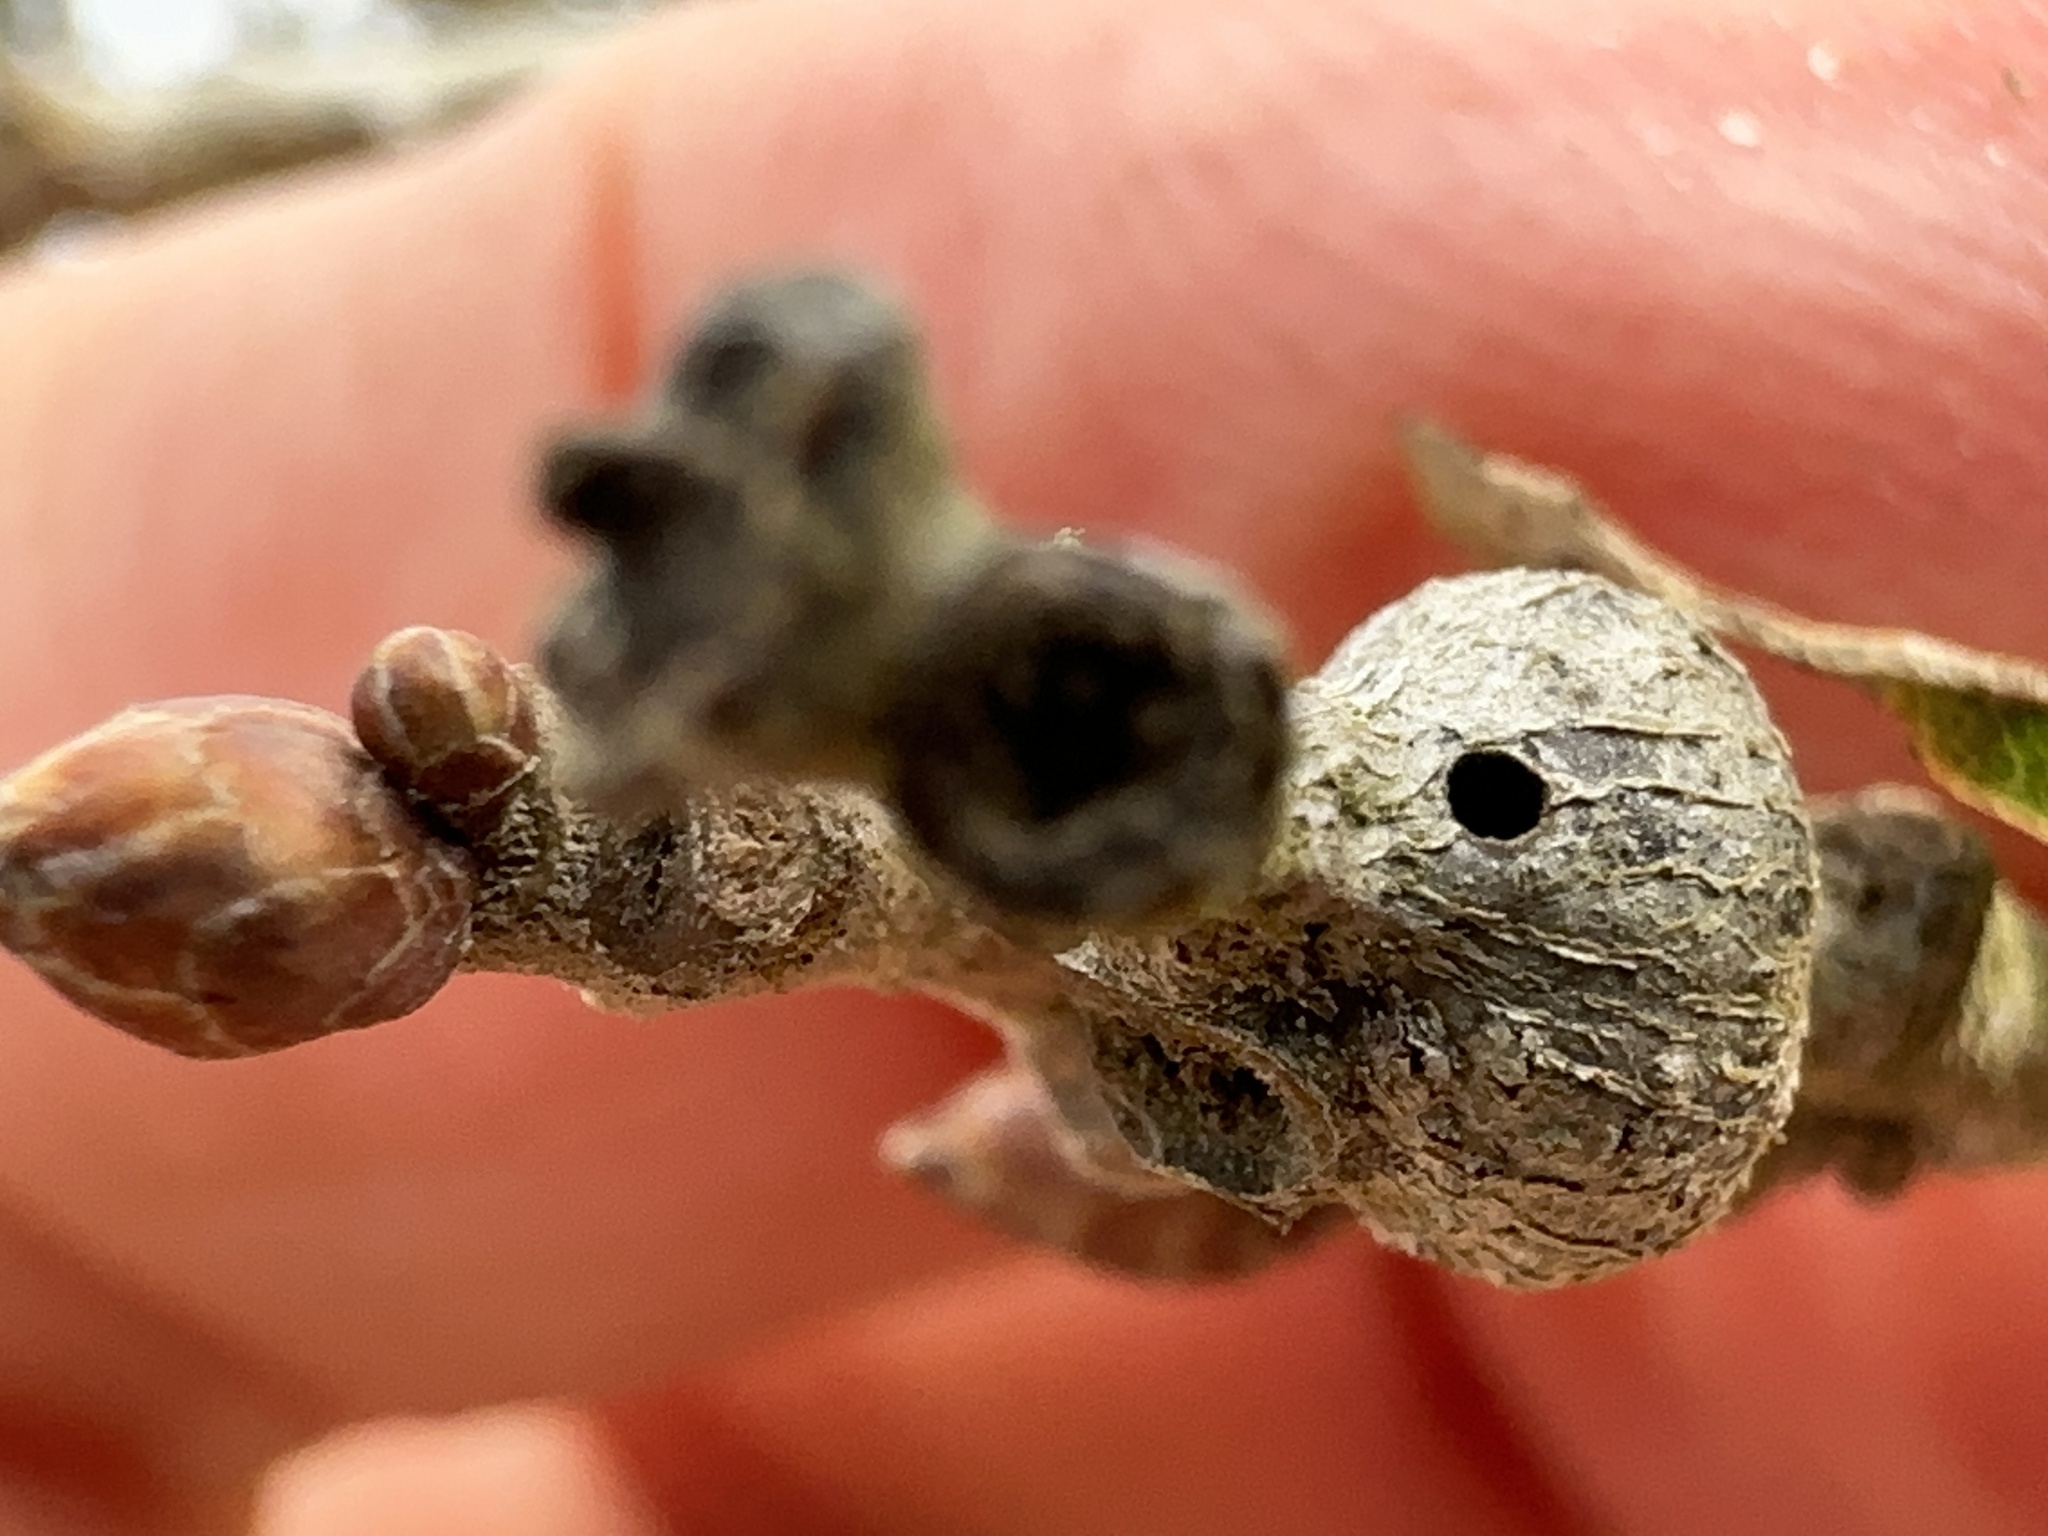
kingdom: Animalia
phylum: Arthropoda
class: Insecta
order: Hymenoptera
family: Cynipidae
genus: Callirhytis
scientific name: Callirhytis
